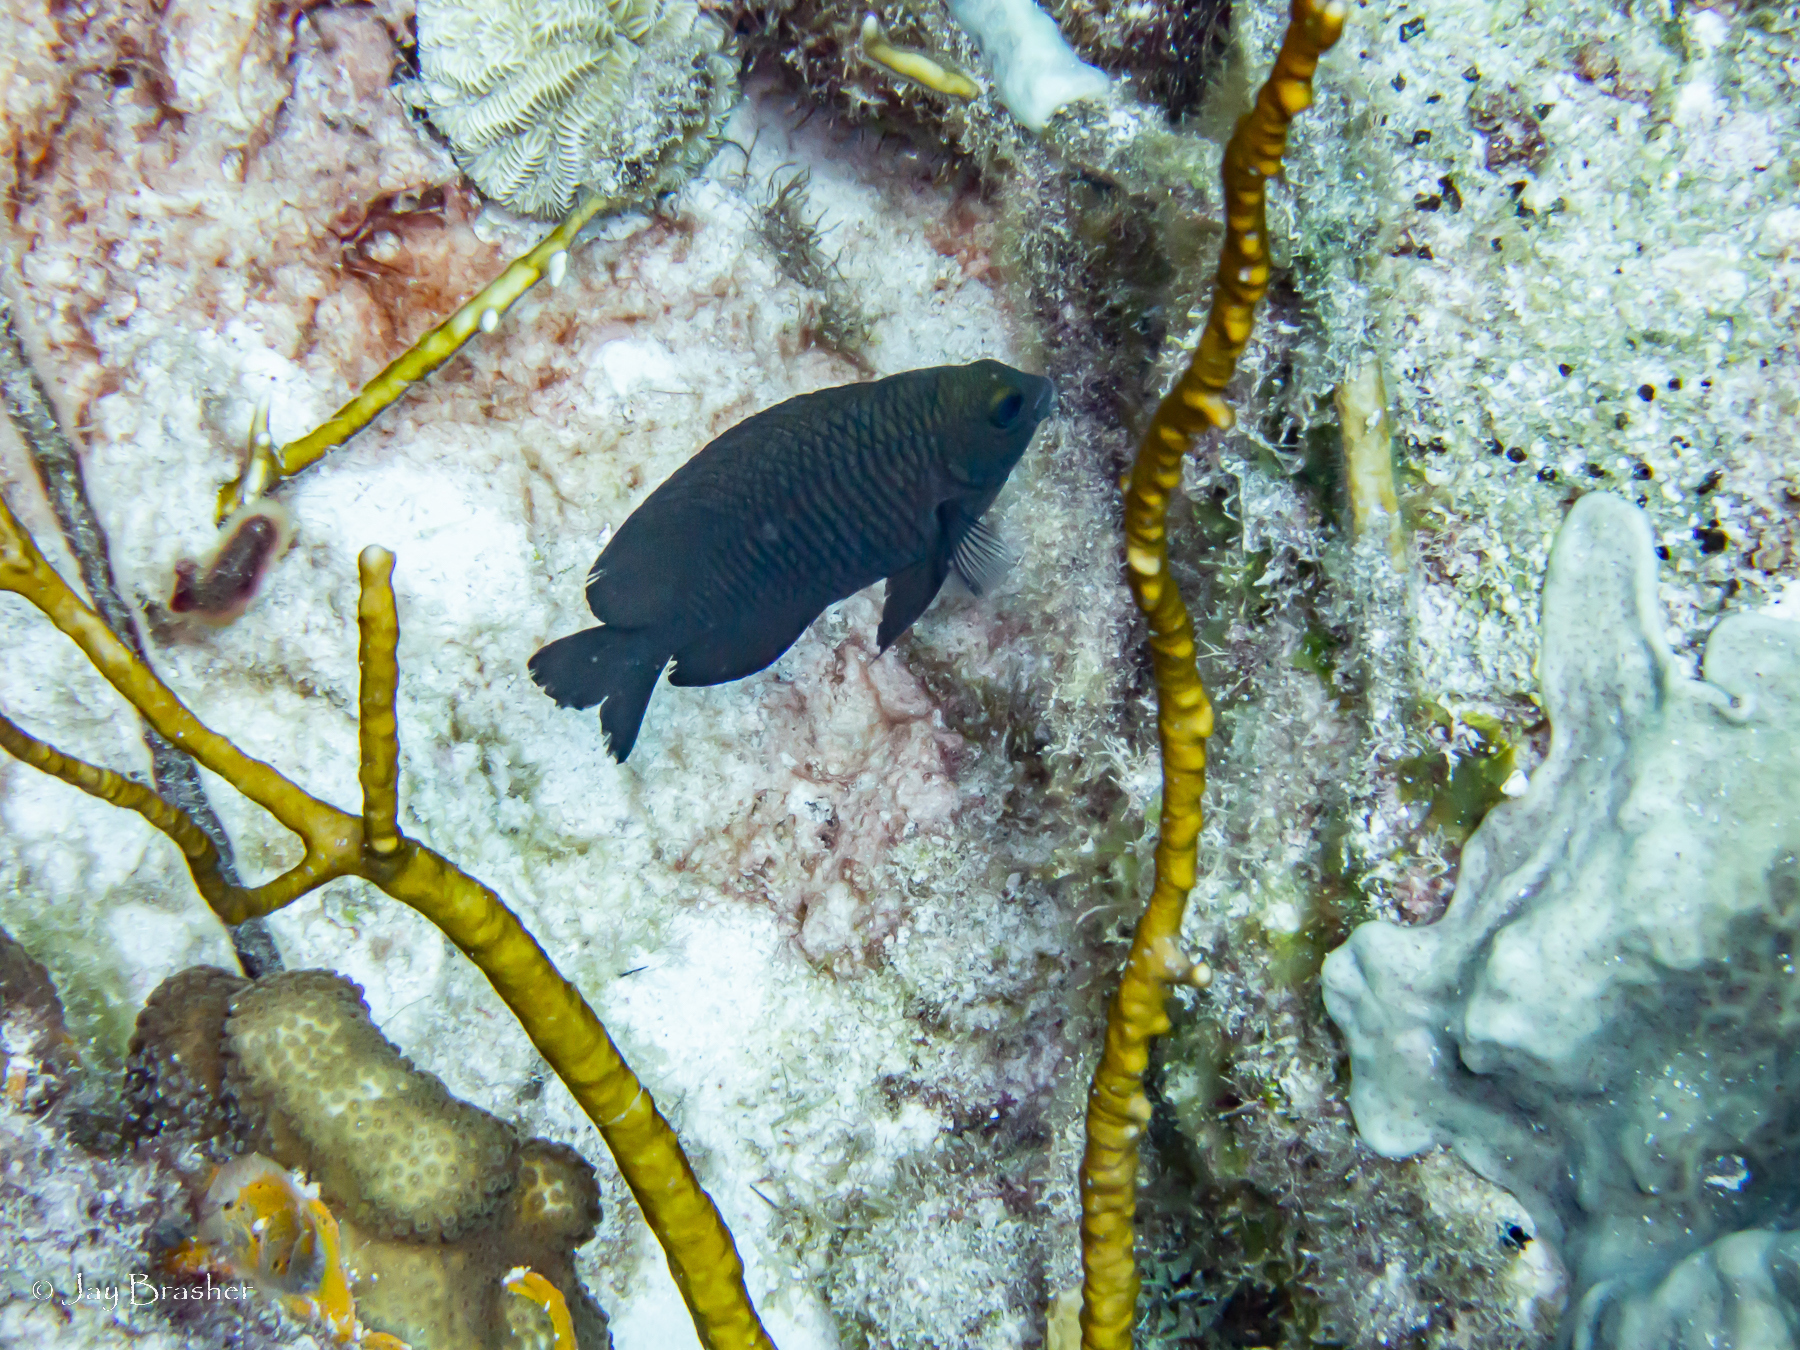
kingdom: Animalia
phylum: Chordata
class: Ascidiacea
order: Aplousobranchia
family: Didemnidae
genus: Trididemnum
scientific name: Trididemnum solidum
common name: Overgrowing mat tunicate
